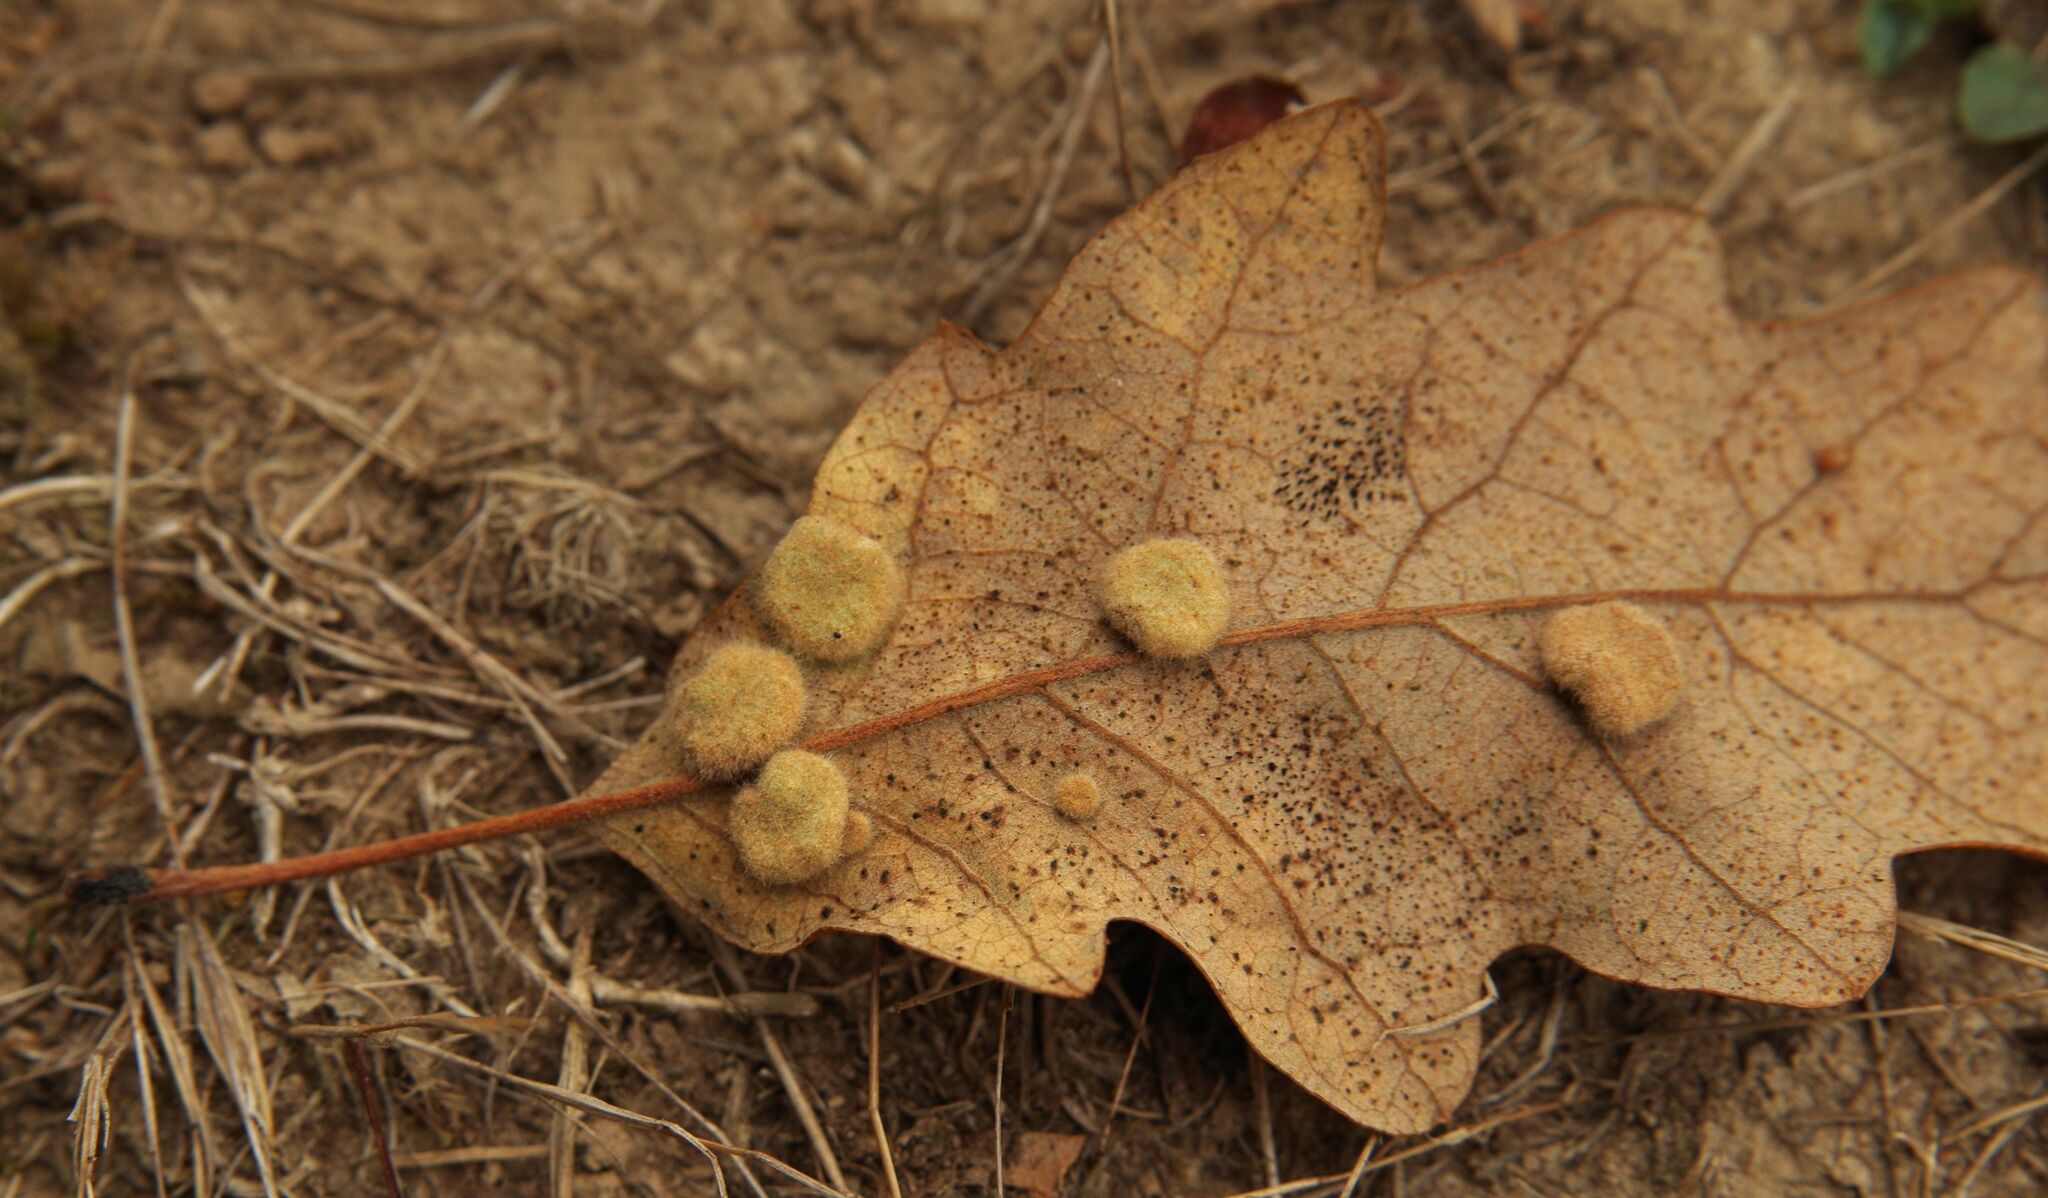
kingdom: Animalia
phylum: Arthropoda
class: Insecta
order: Diptera
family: Cecidomyiidae
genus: Dryomyia
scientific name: Dryomyia circinans
